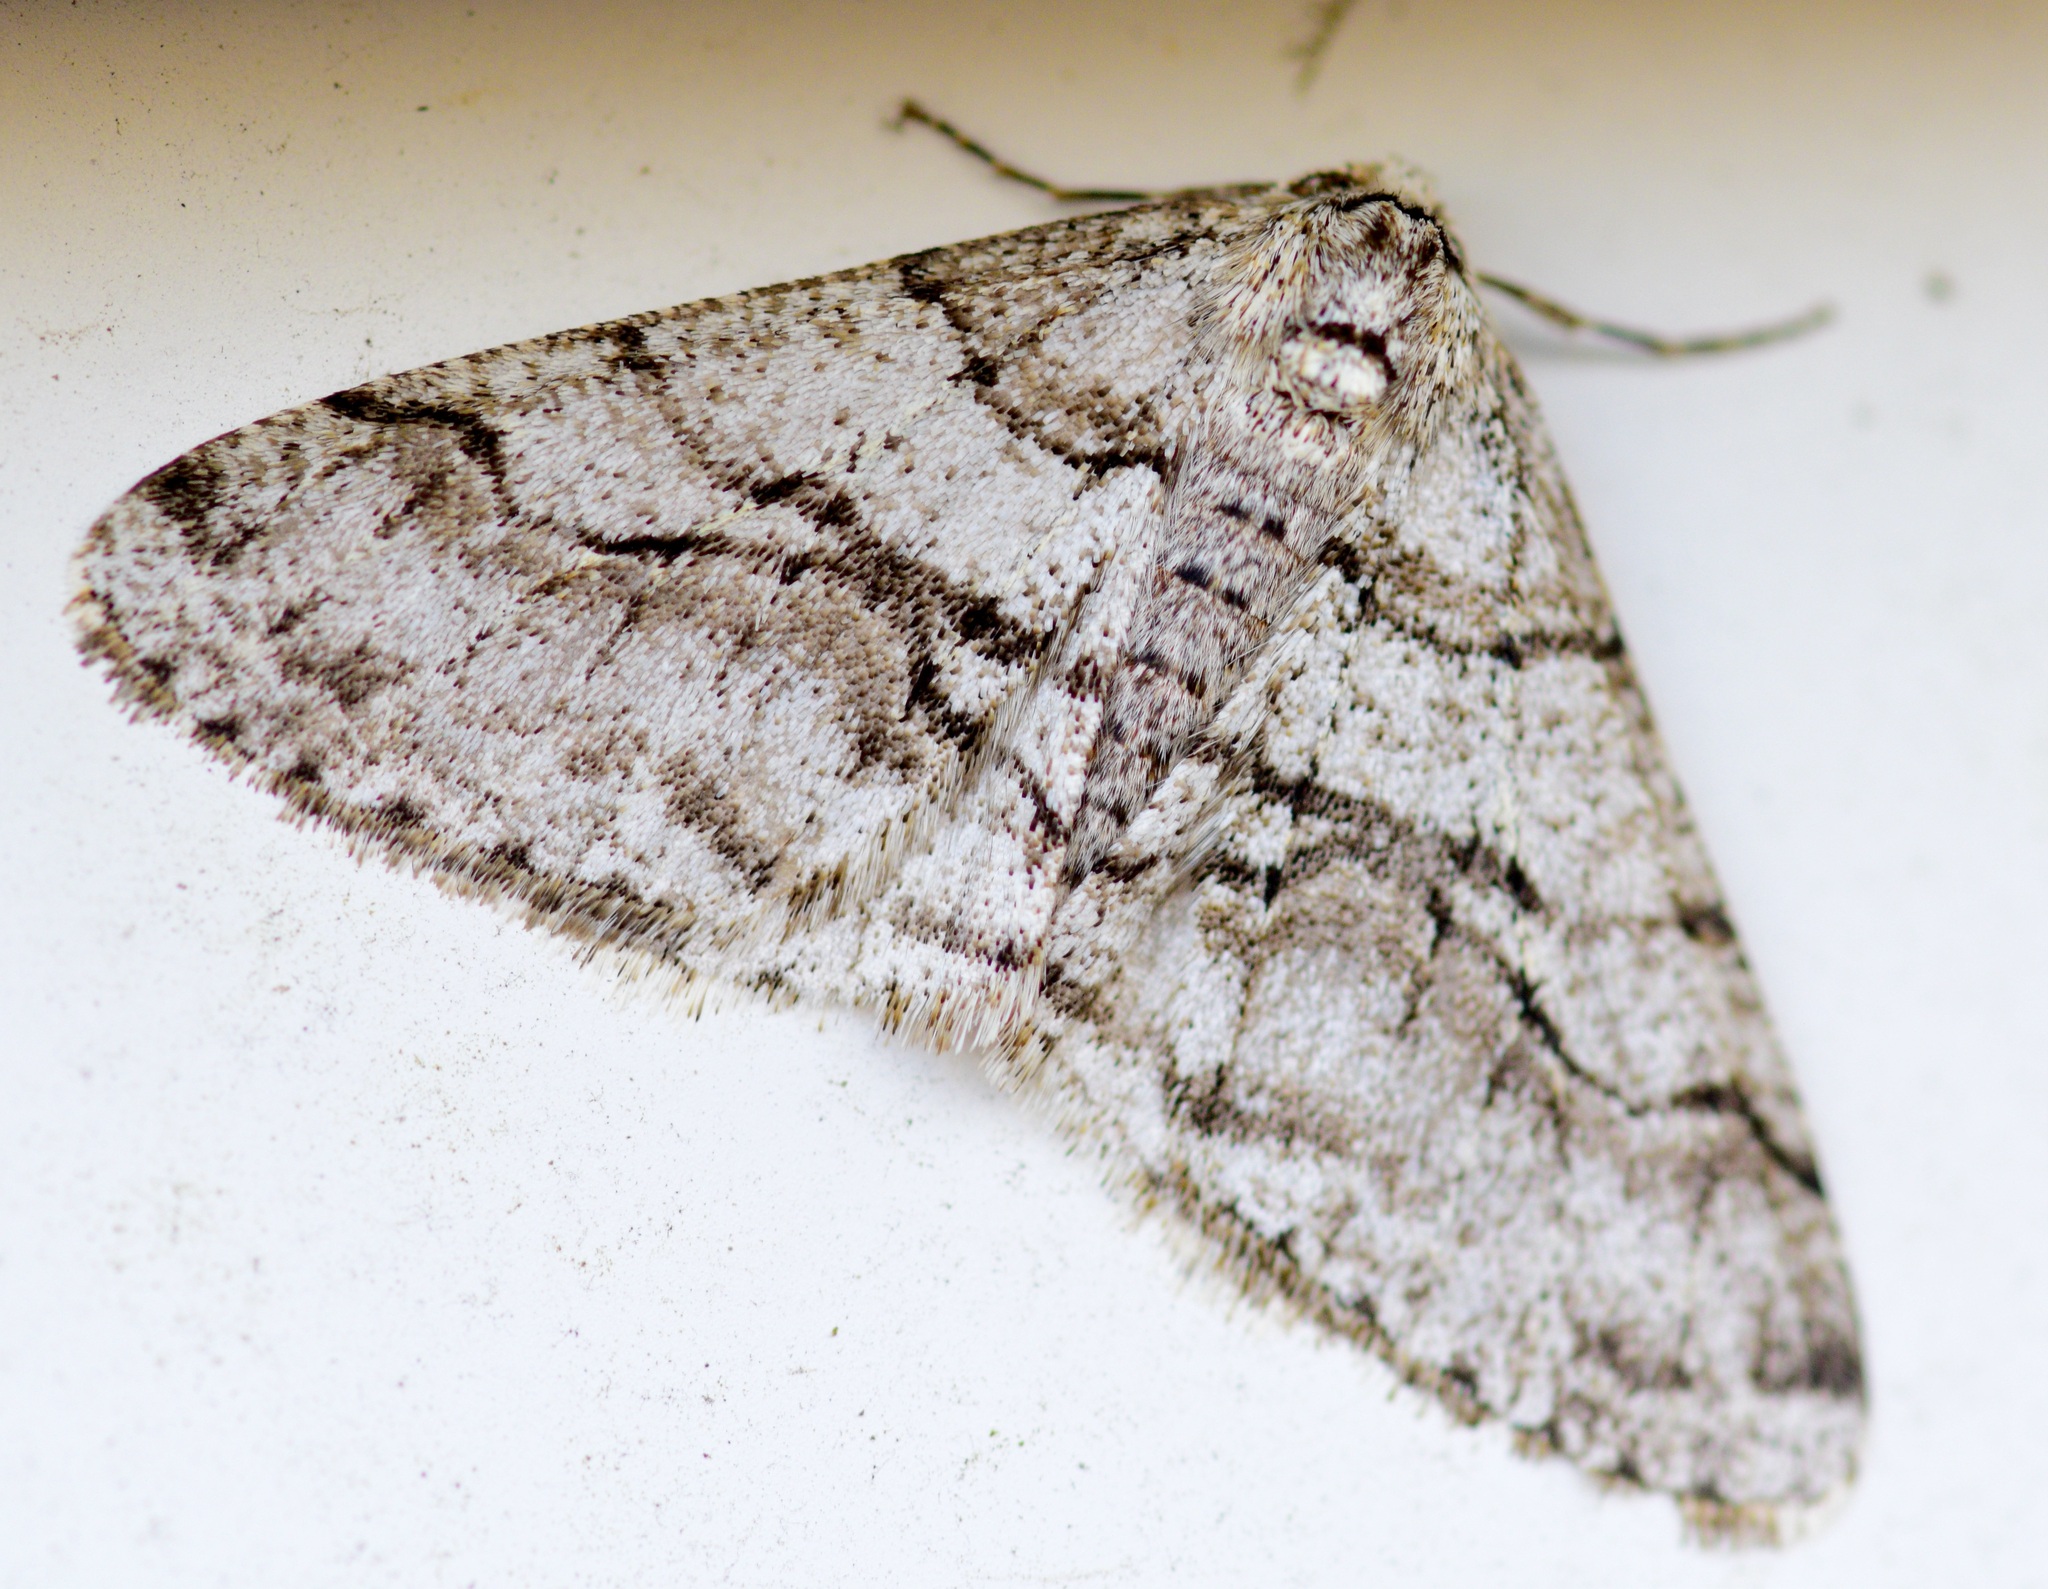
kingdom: Animalia
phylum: Arthropoda
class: Insecta
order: Lepidoptera
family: Geometridae
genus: Phigalia
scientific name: Phigalia titea
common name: Spiny looper
